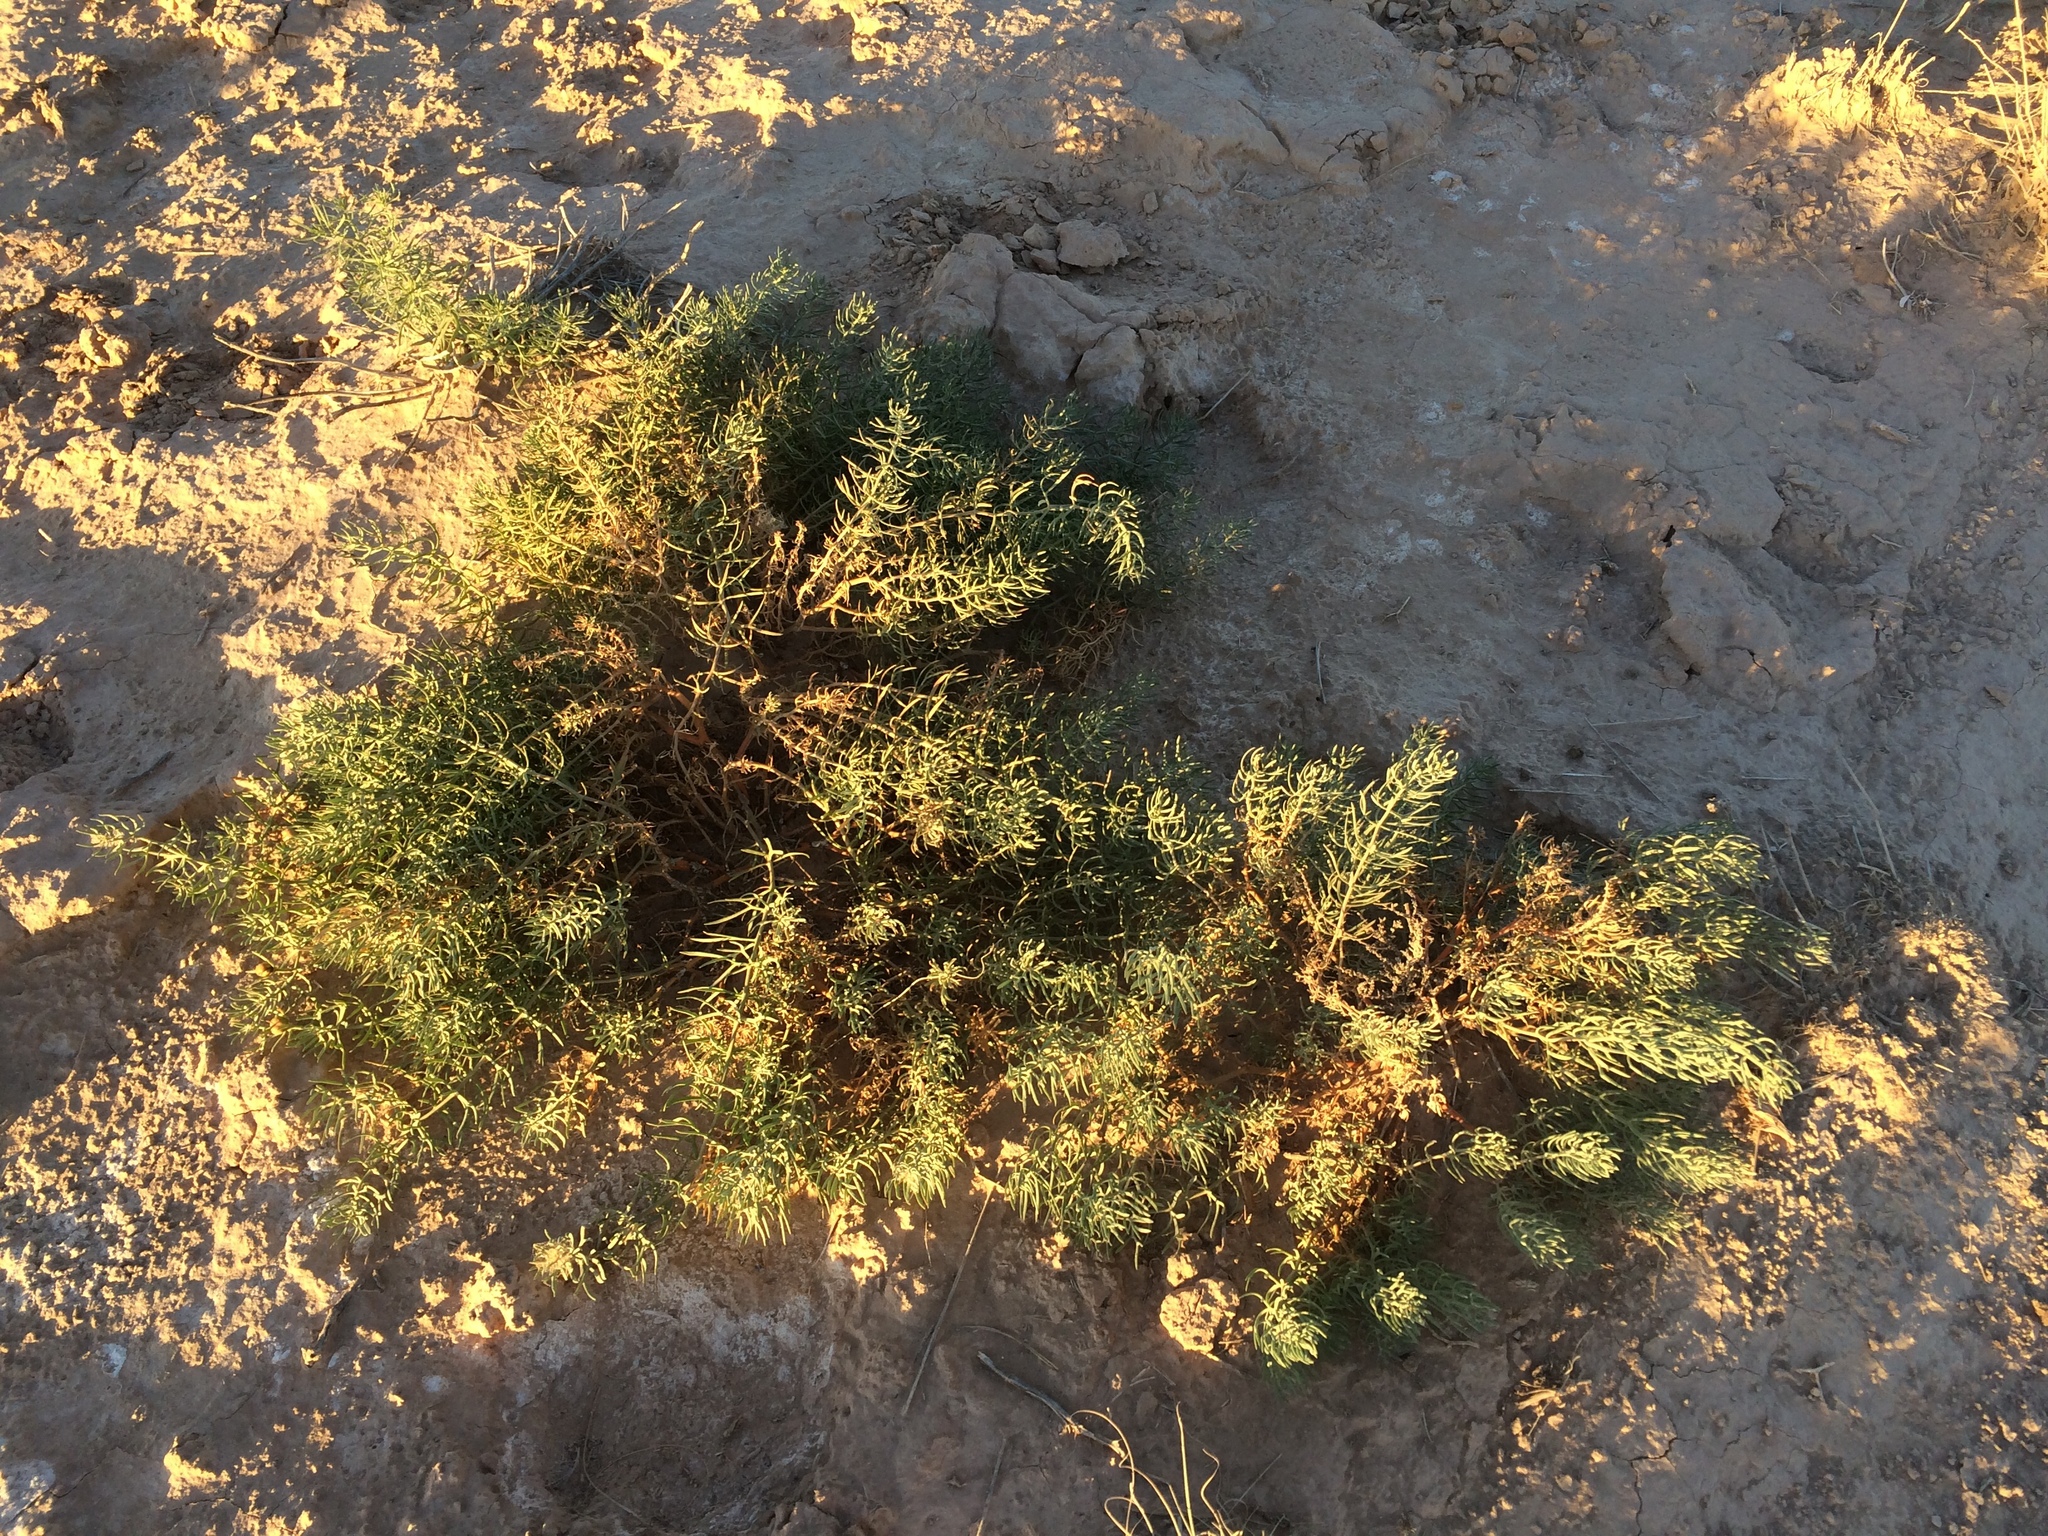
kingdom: Plantae
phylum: Tracheophyta
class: Magnoliopsida
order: Sapindales
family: Tetradiclidaceae
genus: Peganum
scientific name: Peganum harmala
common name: Harmal peganum
